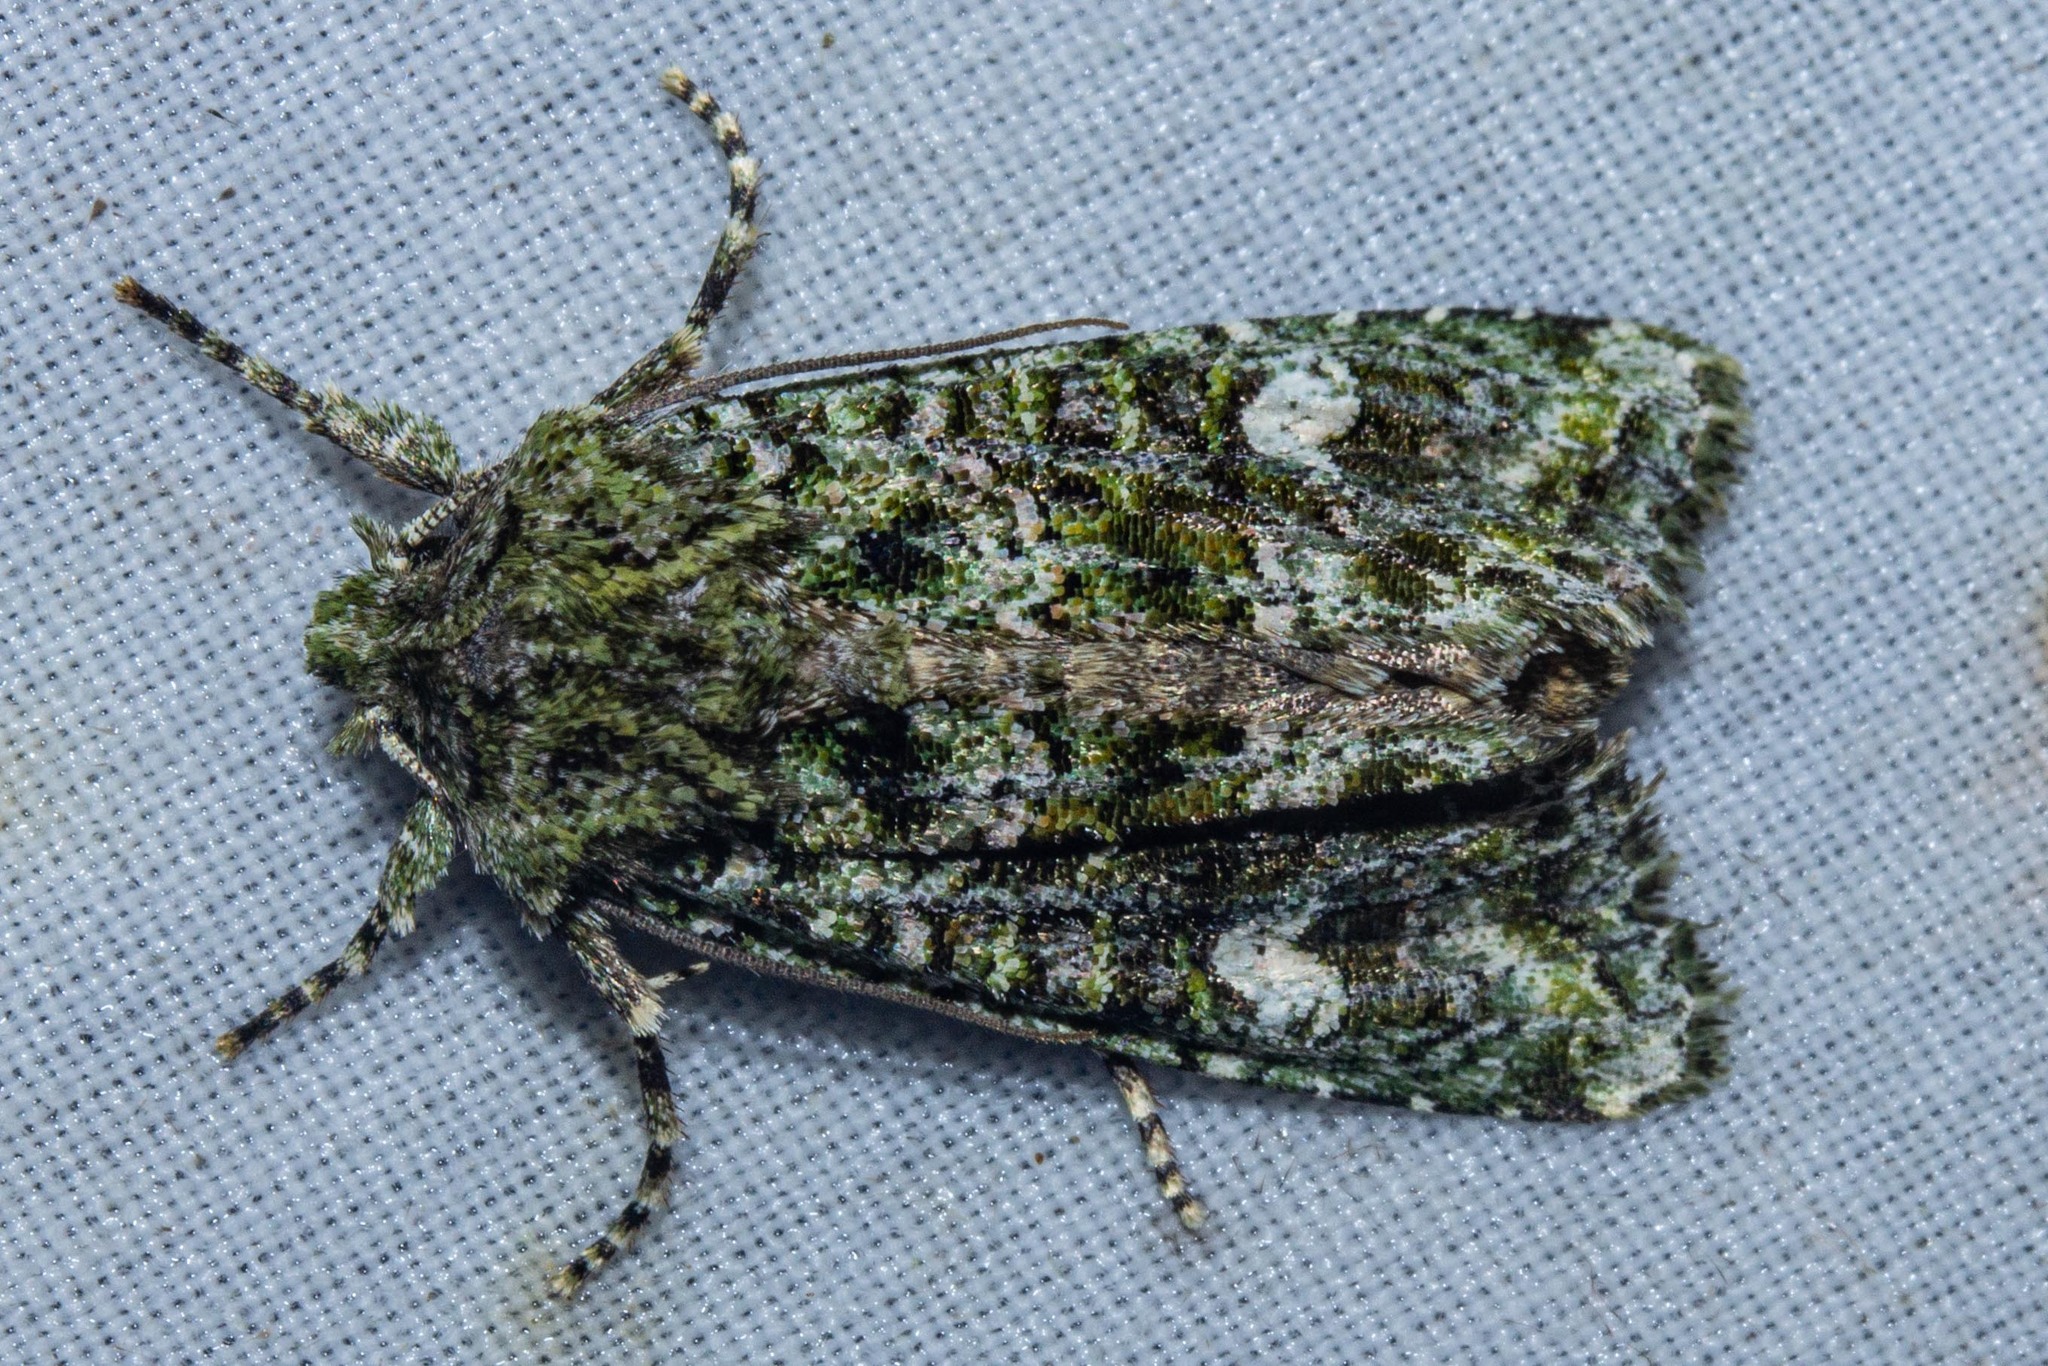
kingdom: Animalia
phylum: Arthropoda
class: Insecta
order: Lepidoptera
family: Noctuidae
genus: Ichneutica
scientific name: Ichneutica
